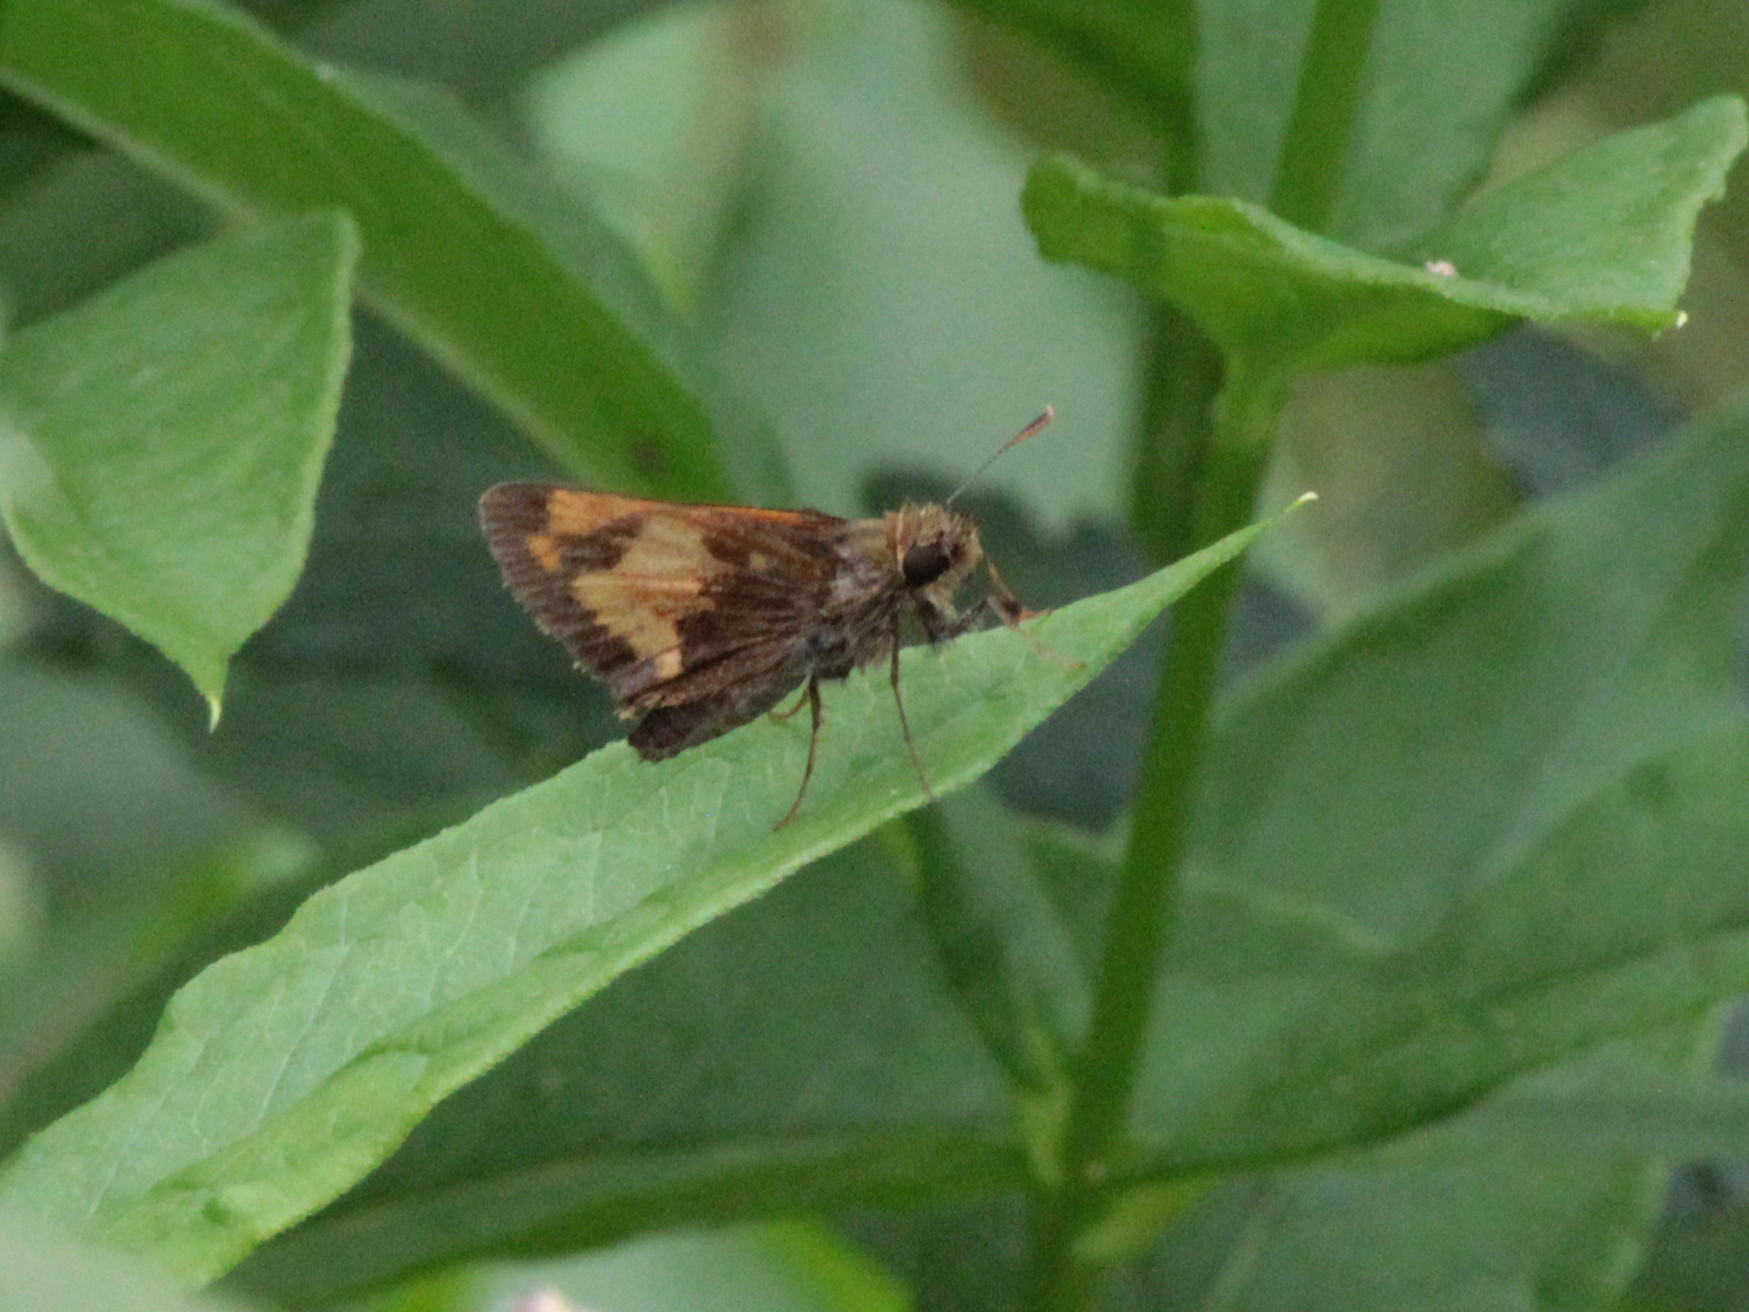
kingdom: Animalia
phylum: Arthropoda
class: Insecta
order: Lepidoptera
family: Hesperiidae
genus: Lon
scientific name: Lon hobomok
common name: Hobomok skipper
